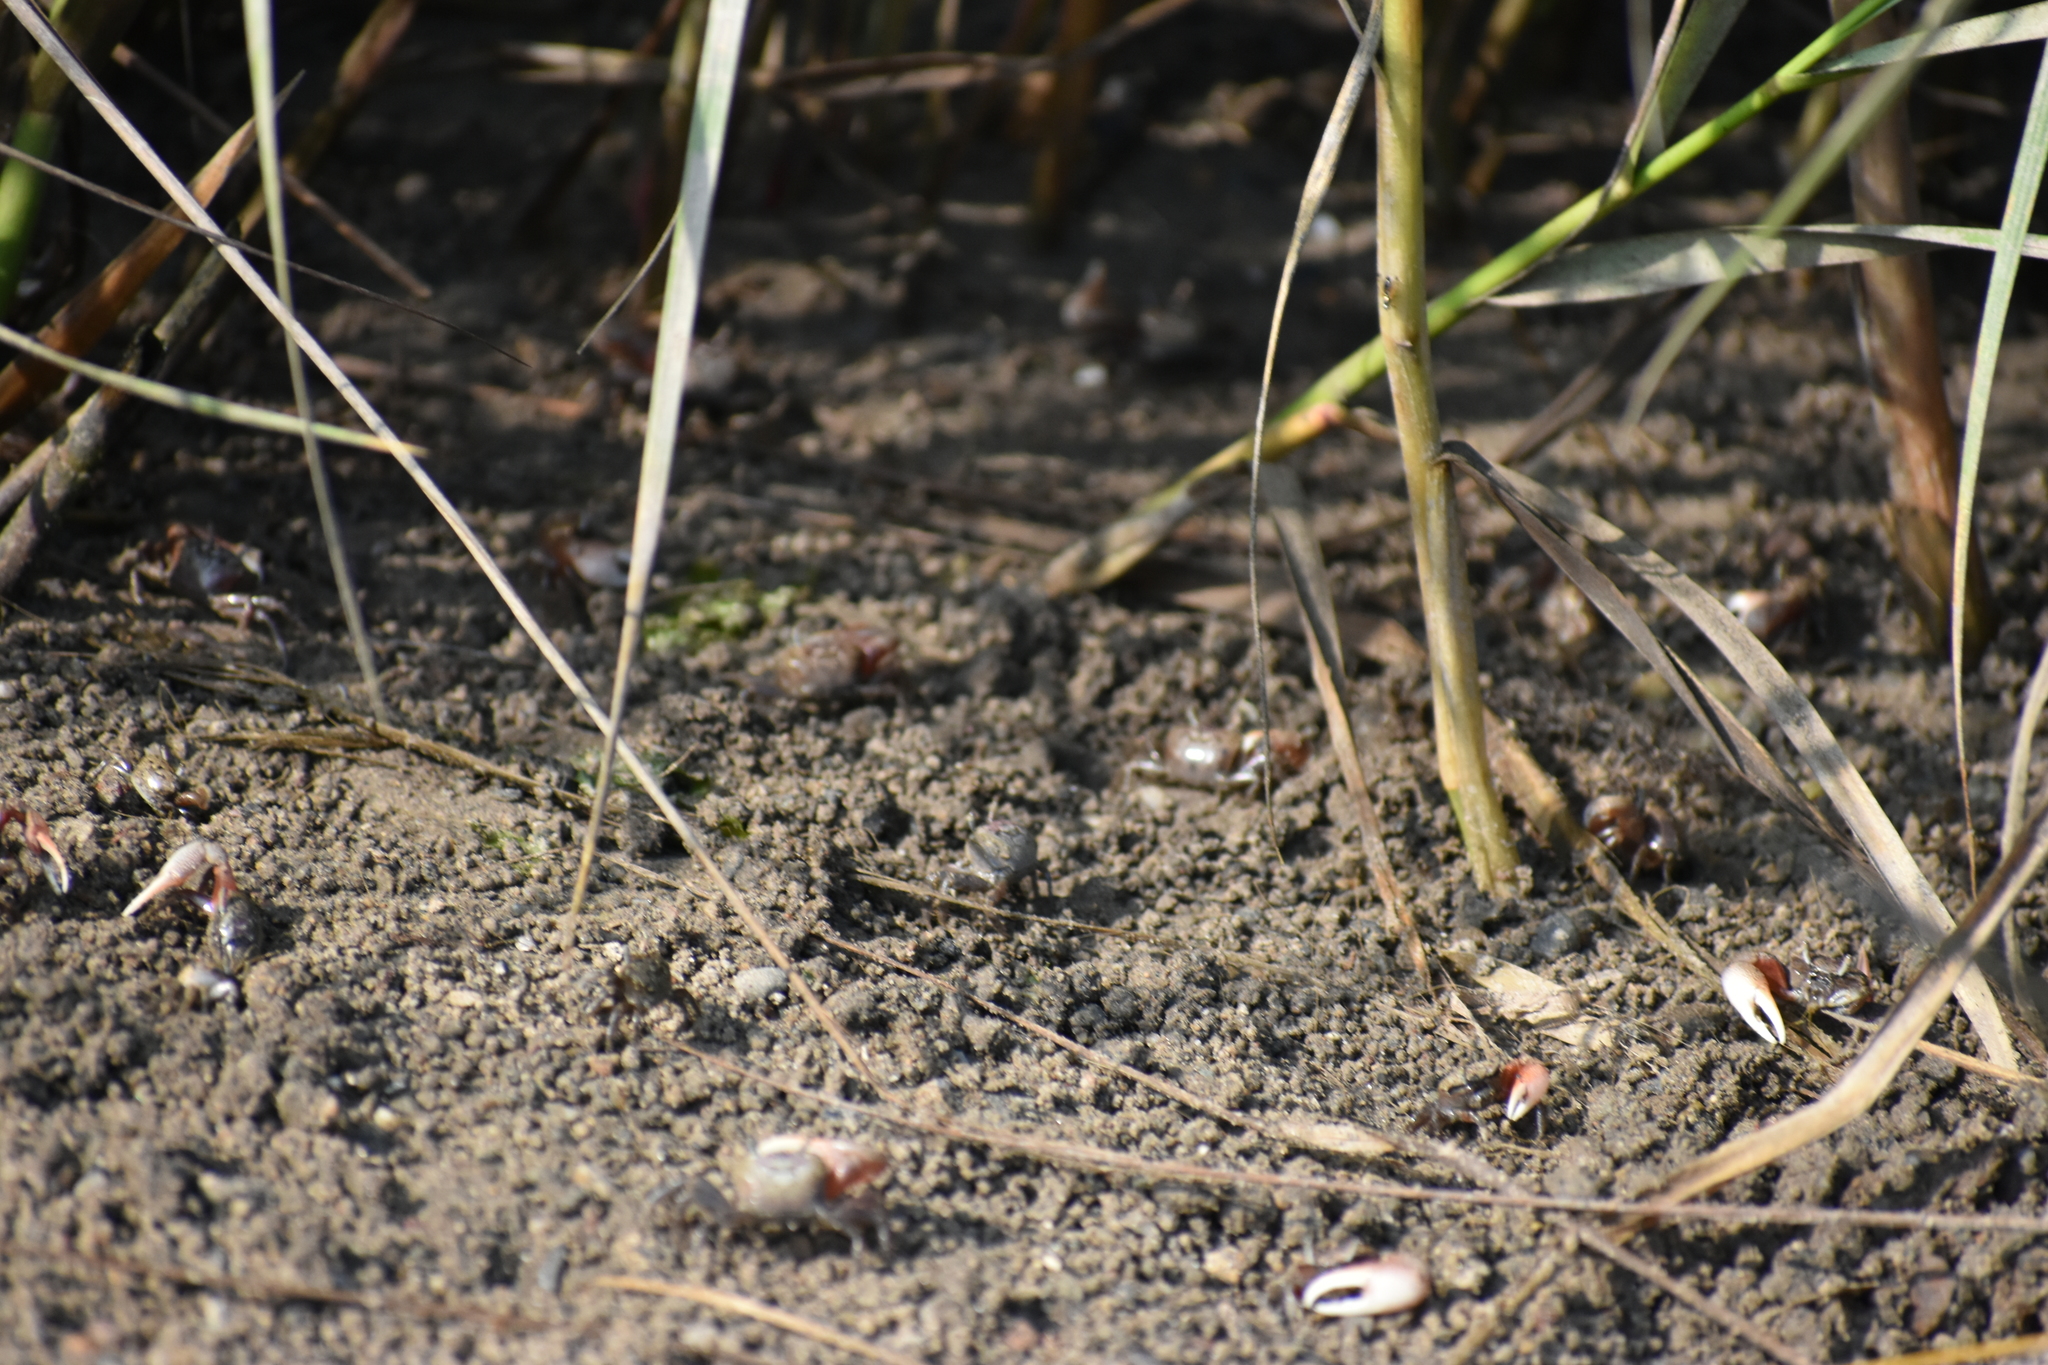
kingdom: Animalia
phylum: Arthropoda
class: Malacostraca
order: Decapoda
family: Ocypodidae
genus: Leptuca
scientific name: Leptuca pugilator
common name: Atlantic sand fiddler crab
